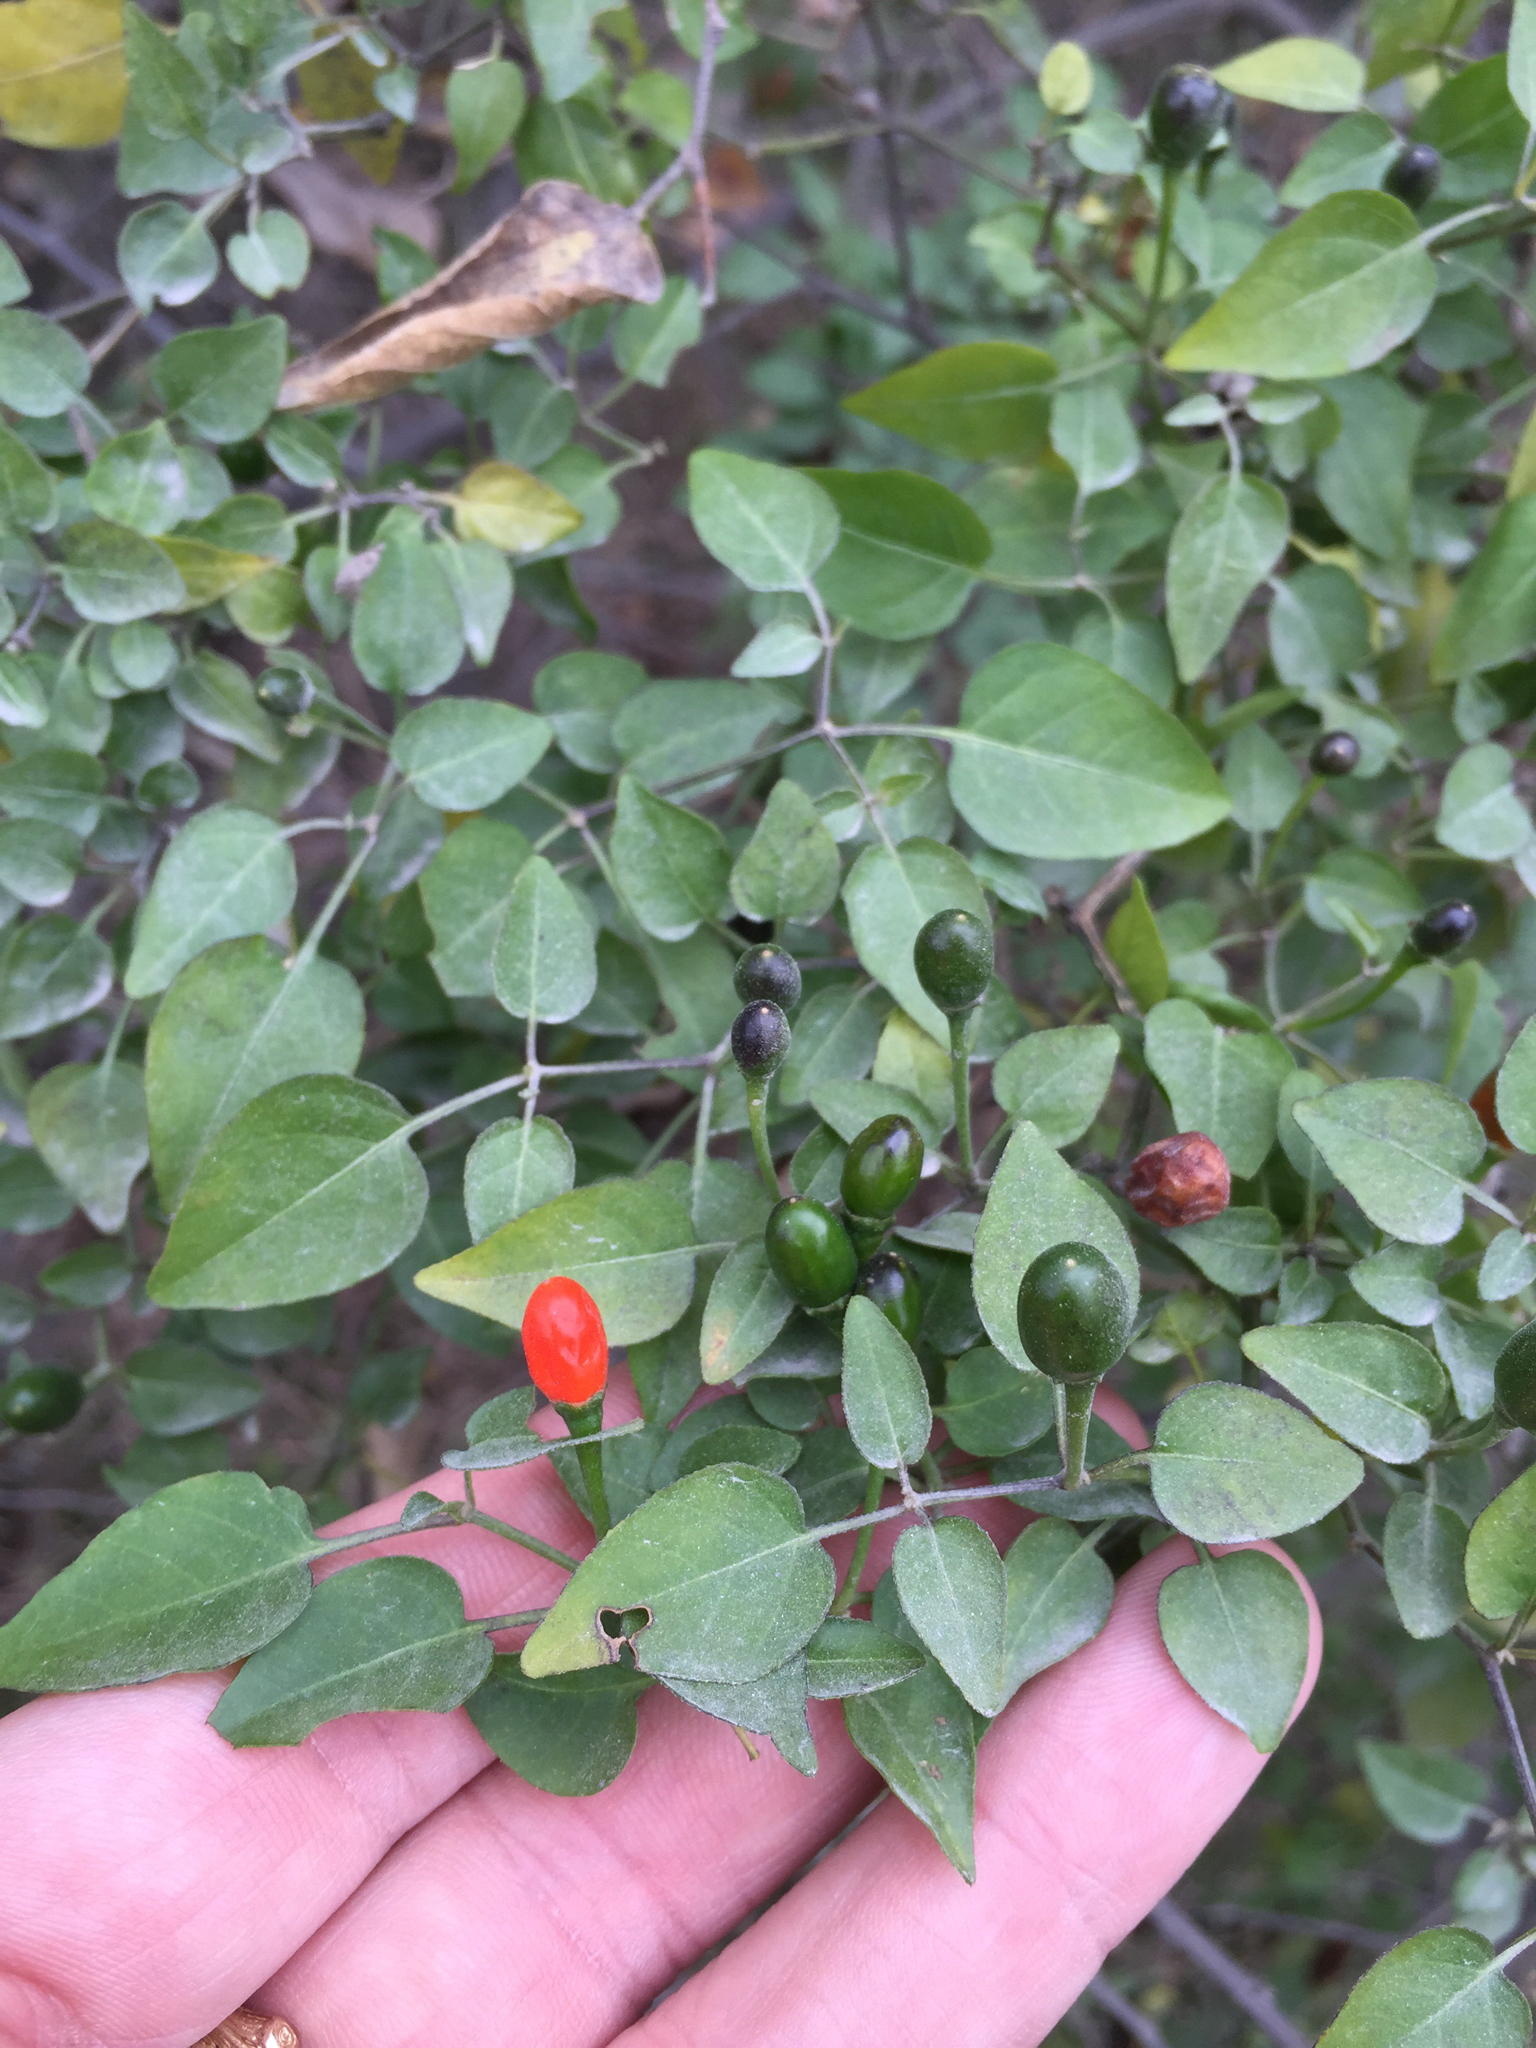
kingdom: Plantae
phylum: Tracheophyta
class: Magnoliopsida
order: Solanales
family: Solanaceae
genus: Capsicum
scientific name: Capsicum annuum
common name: Sweet pepper
